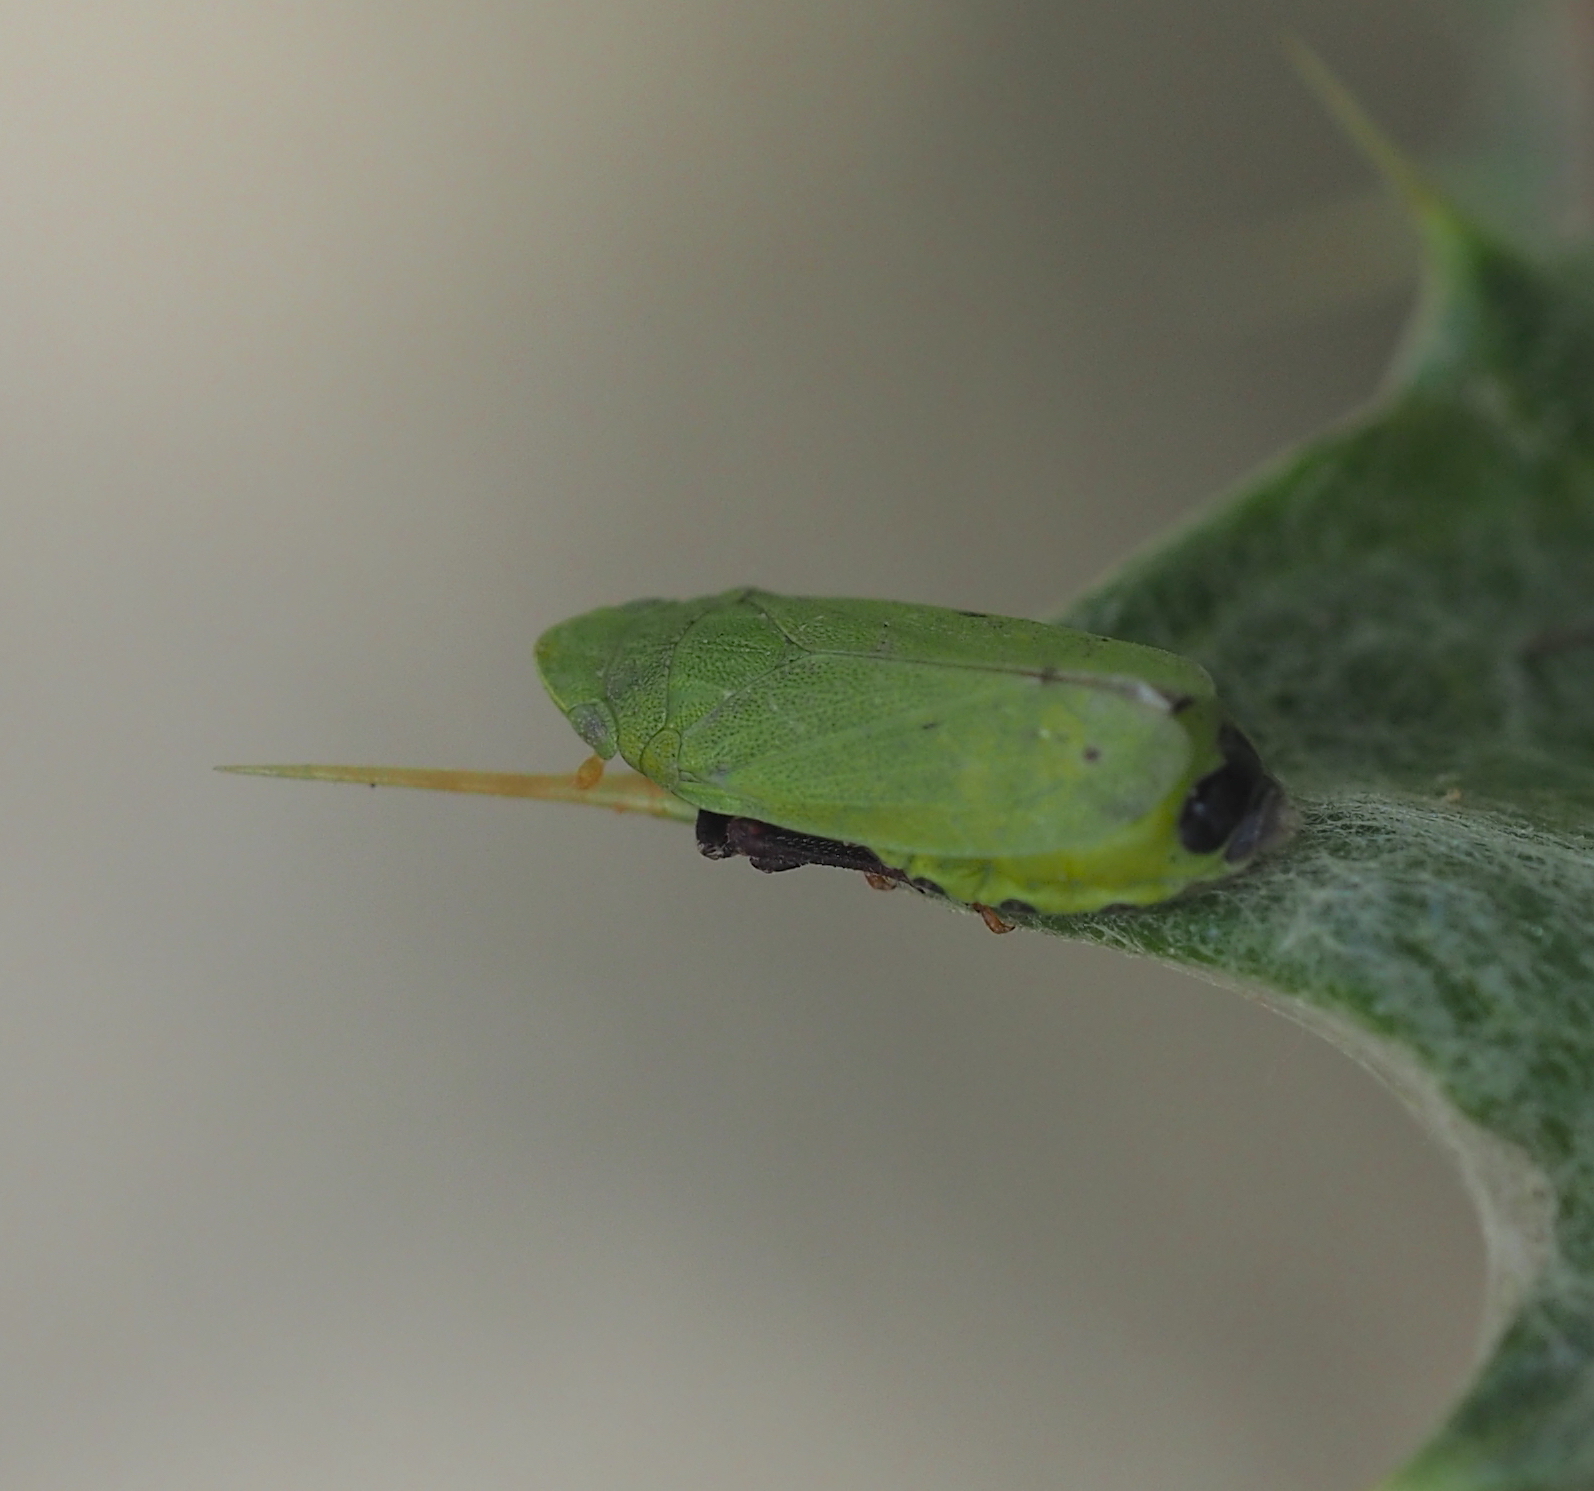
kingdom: Animalia
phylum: Arthropoda
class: Insecta
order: Hemiptera
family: Tettigometridae
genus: Tettigometra
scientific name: Tettigometra sulphurea
